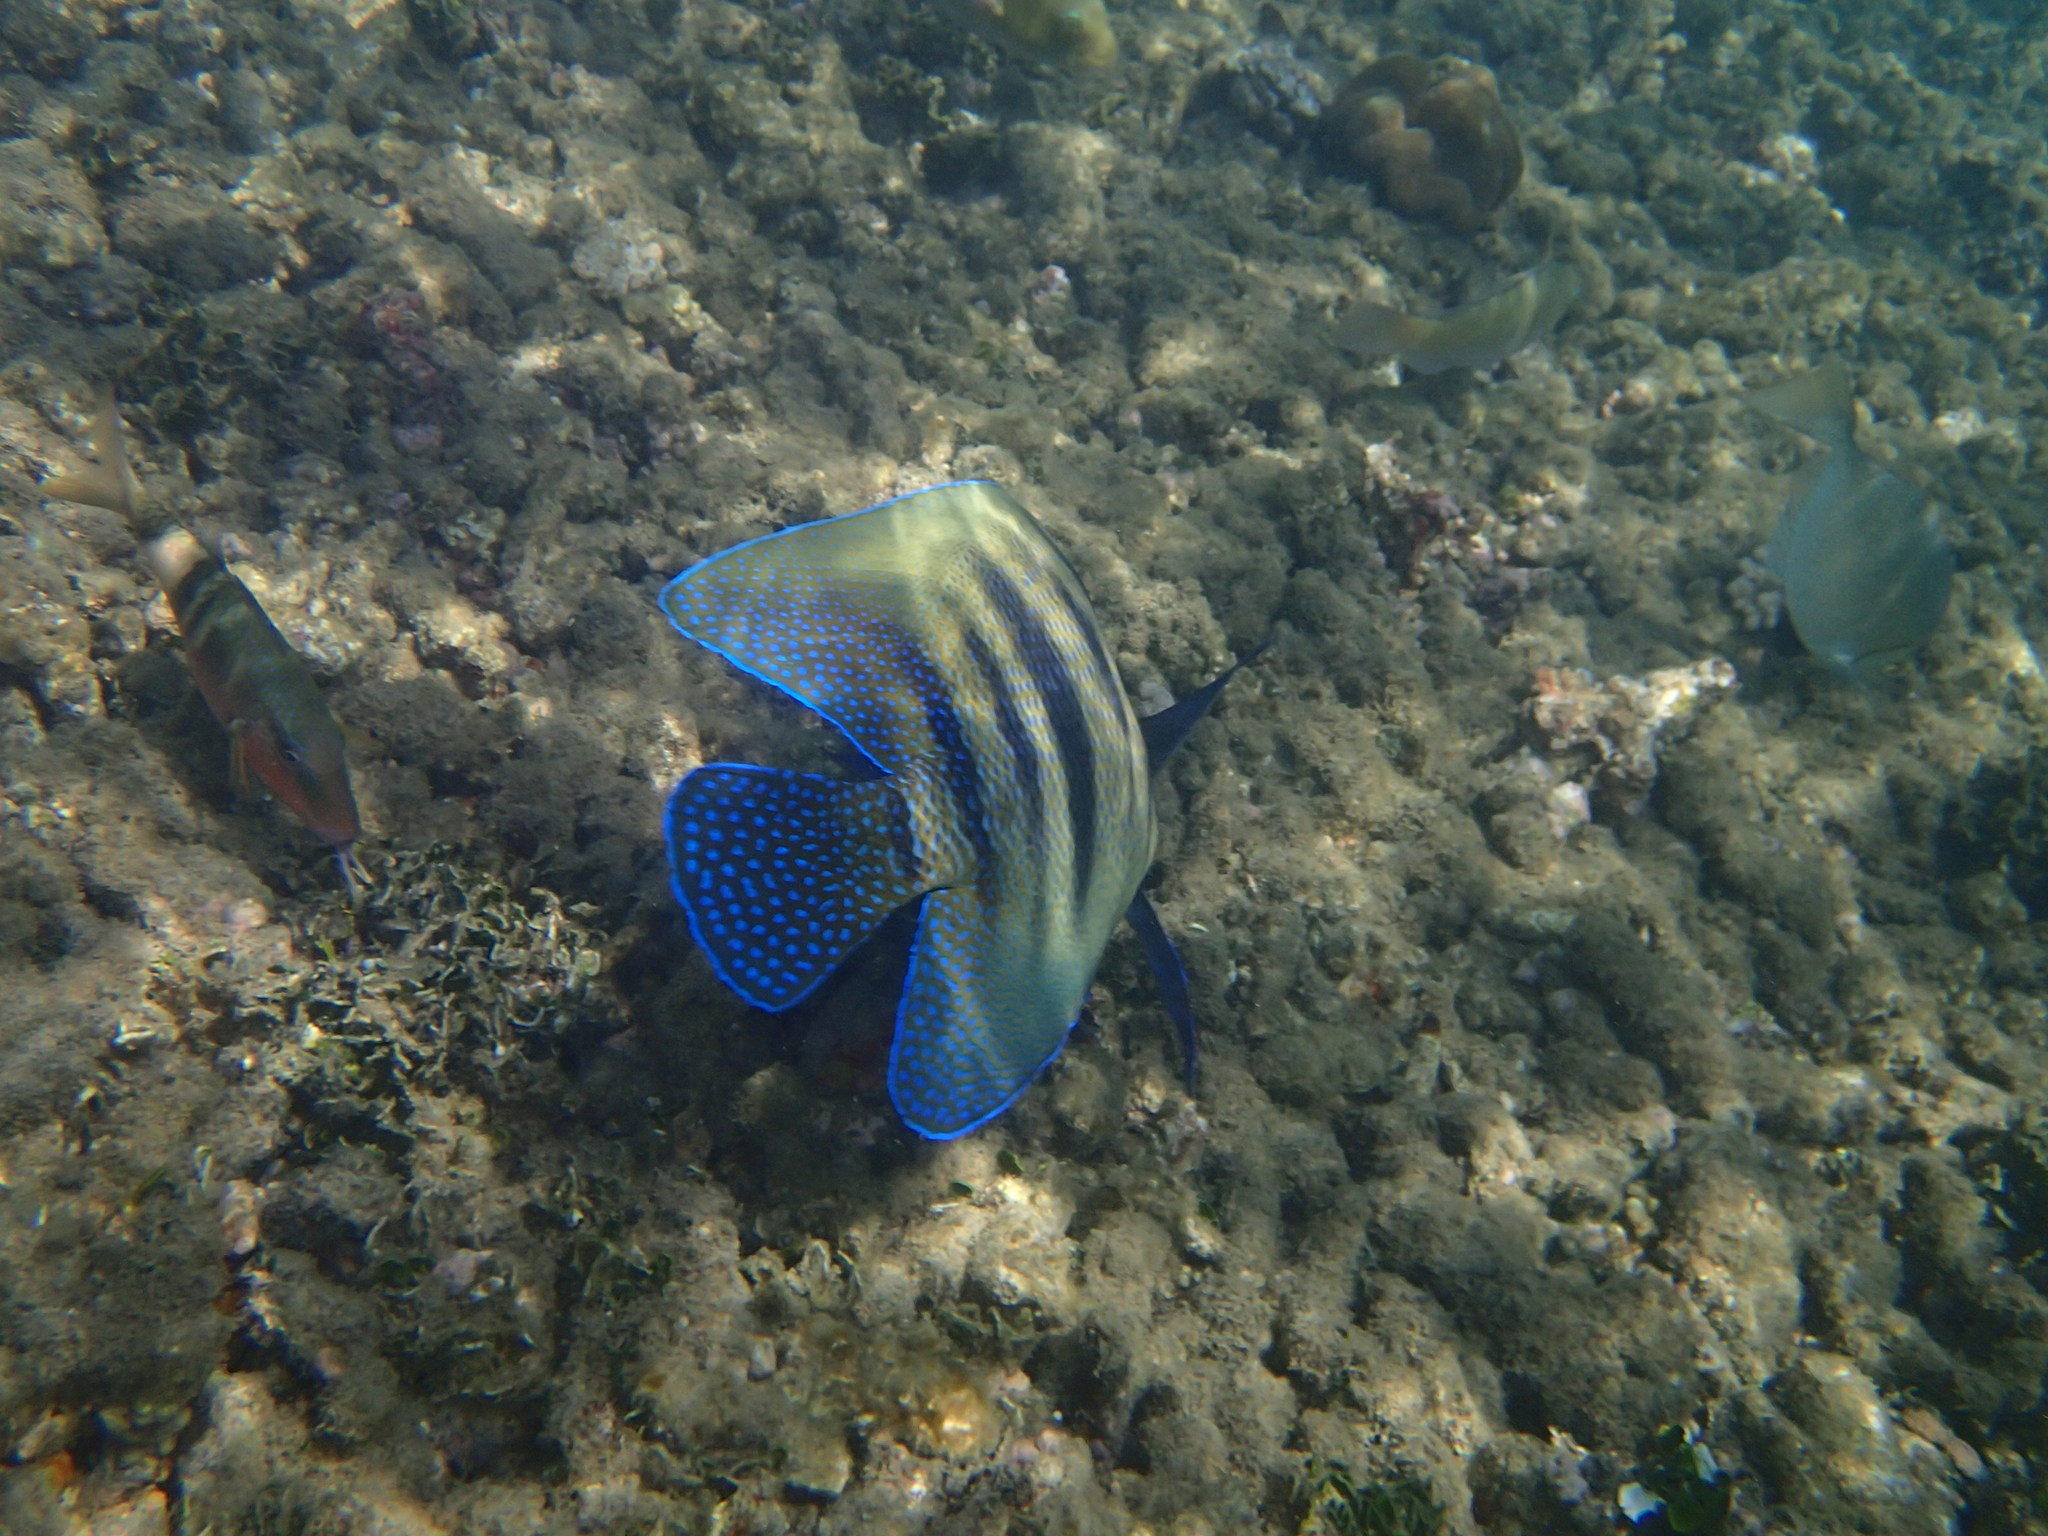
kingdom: Animalia
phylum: Chordata
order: Perciformes
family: Mullidae
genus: Parupeneus
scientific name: Parupeneus multifasciatus
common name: Manybar goatfish
